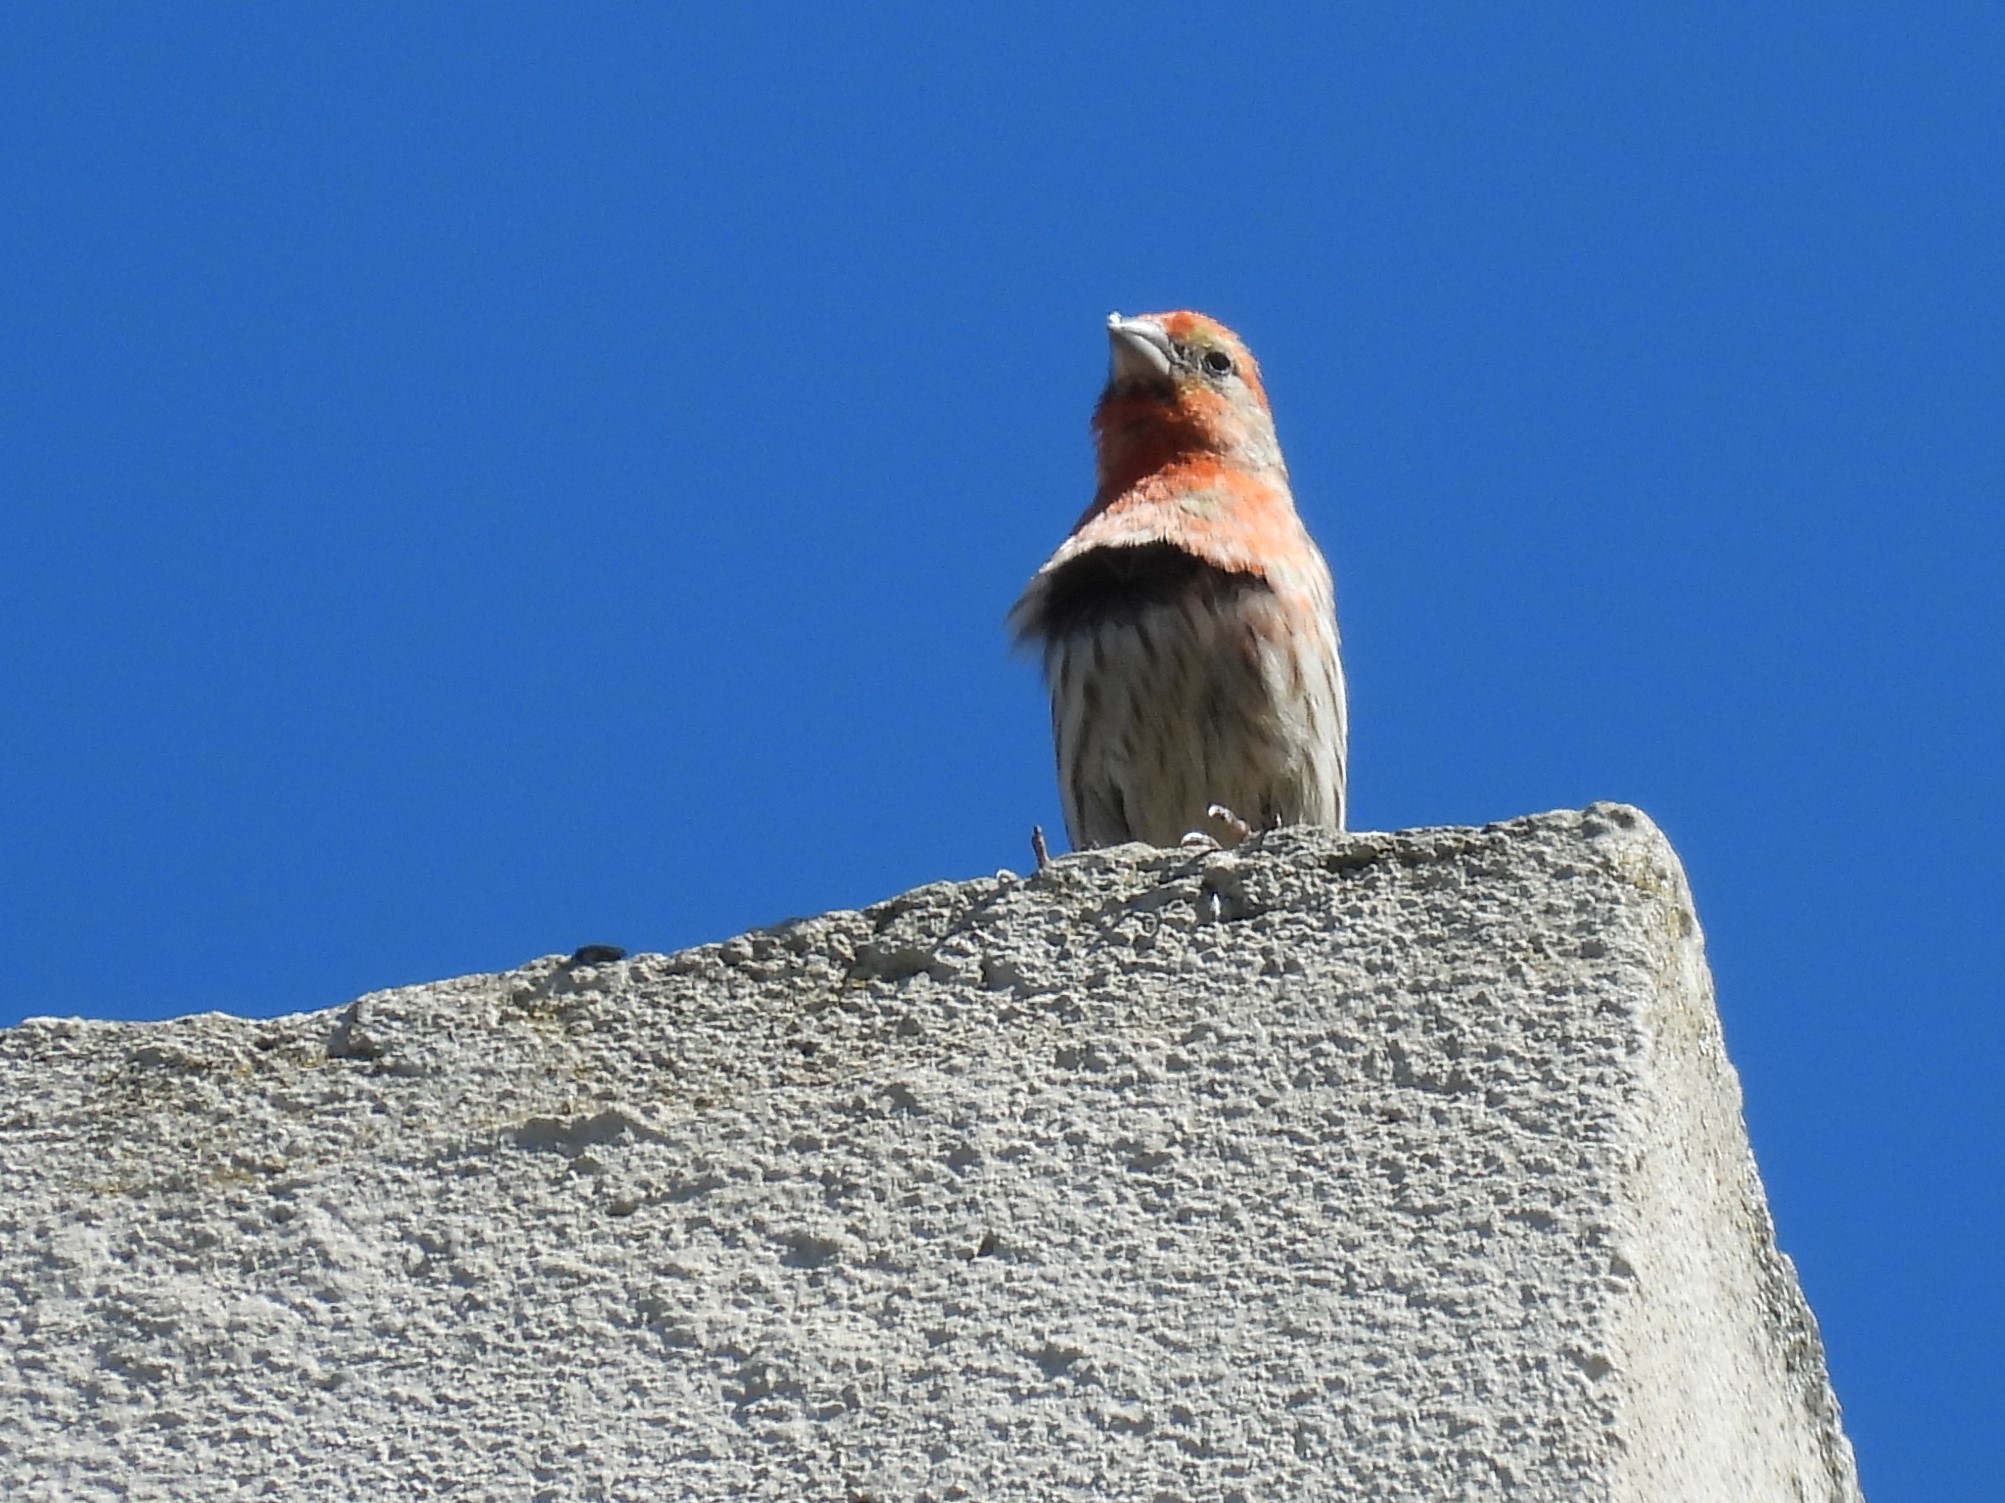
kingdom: Animalia
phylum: Chordata
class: Aves
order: Passeriformes
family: Fringillidae
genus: Haemorhous
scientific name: Haemorhous mexicanus
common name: House finch
